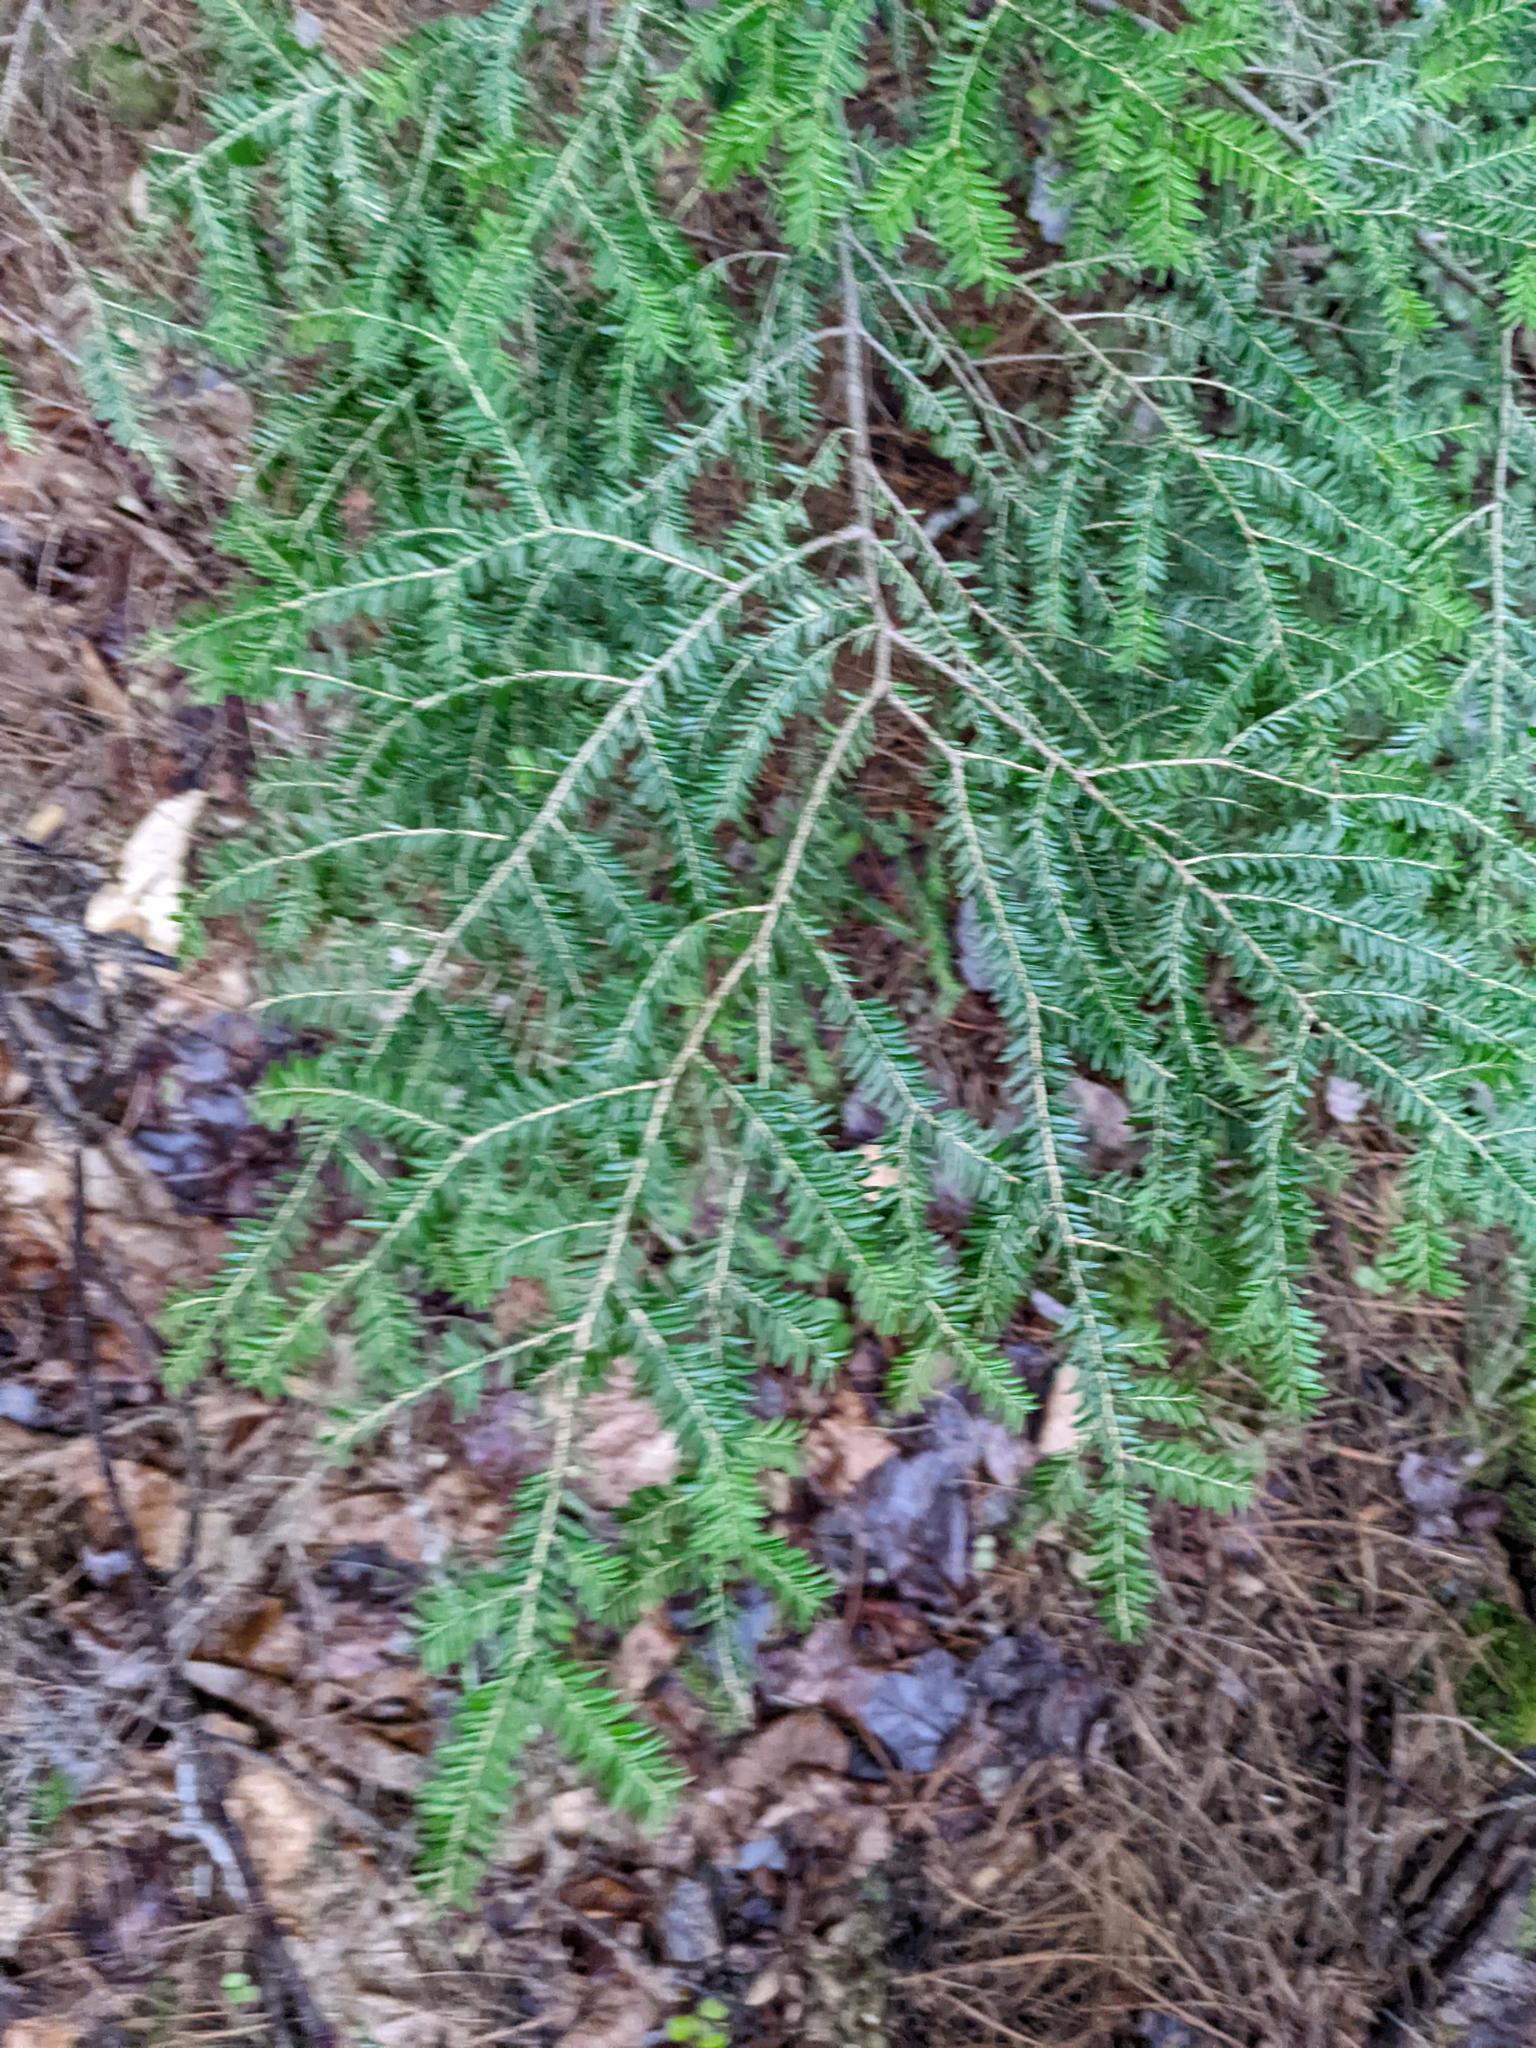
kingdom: Plantae
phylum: Tracheophyta
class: Pinopsida
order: Pinales
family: Pinaceae
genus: Tsuga
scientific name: Tsuga canadensis
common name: Eastern hemlock
